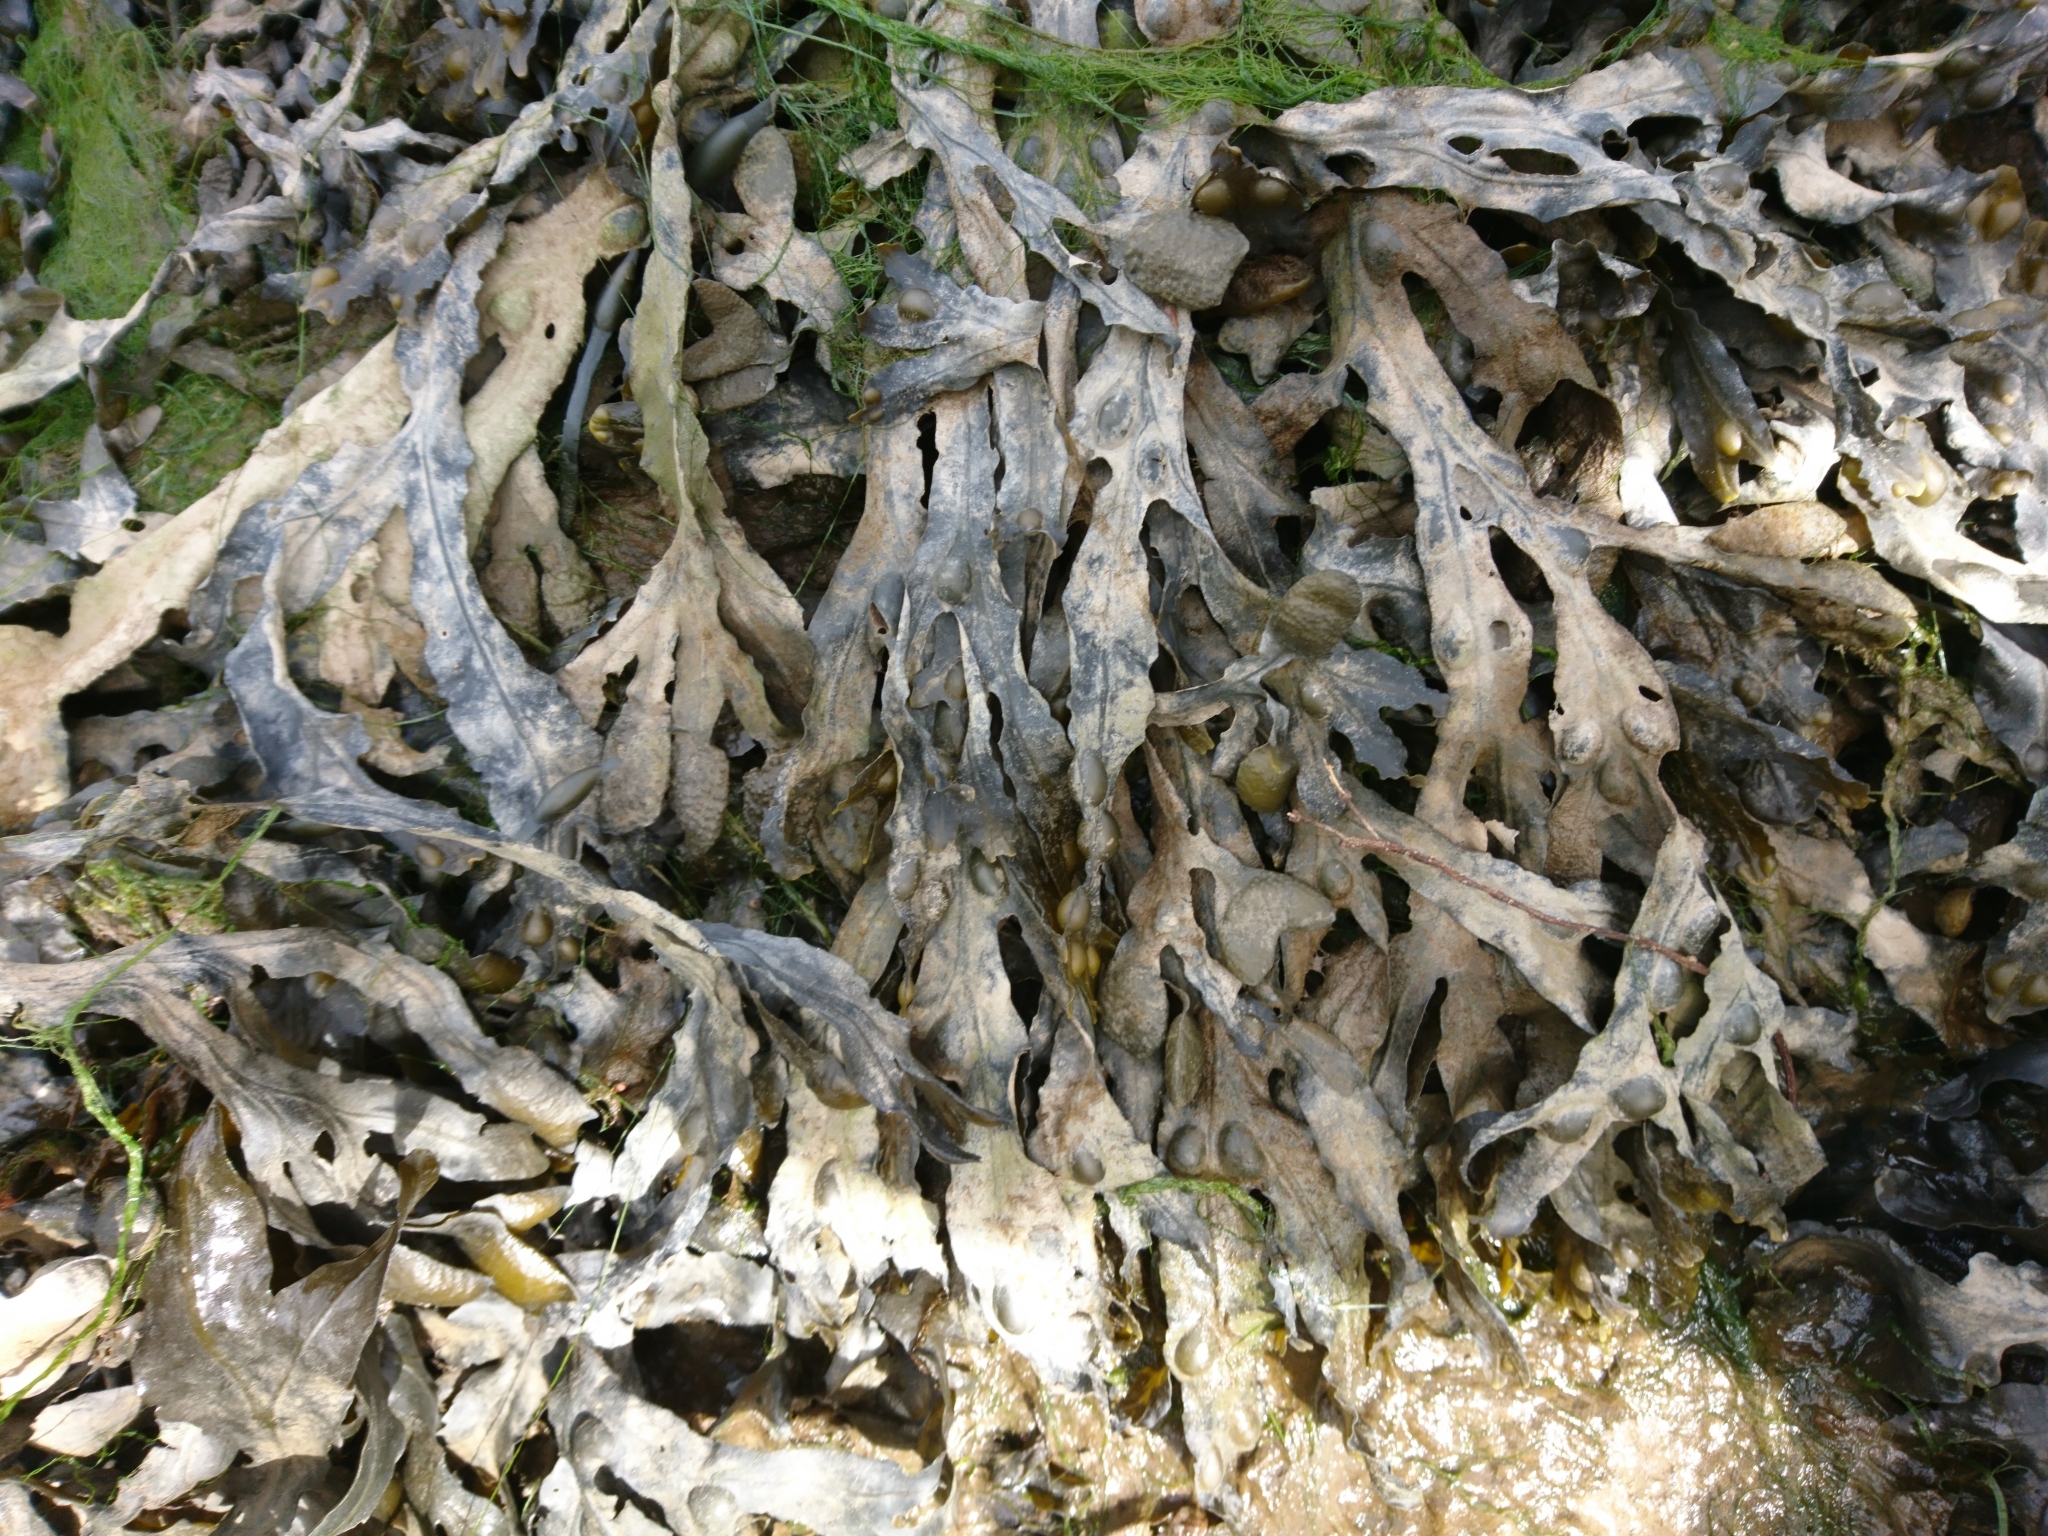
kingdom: Chromista
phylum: Ochrophyta
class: Phaeophyceae
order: Fucales
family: Fucaceae
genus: Fucus
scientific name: Fucus vesiculosus
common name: Bladder wrack
